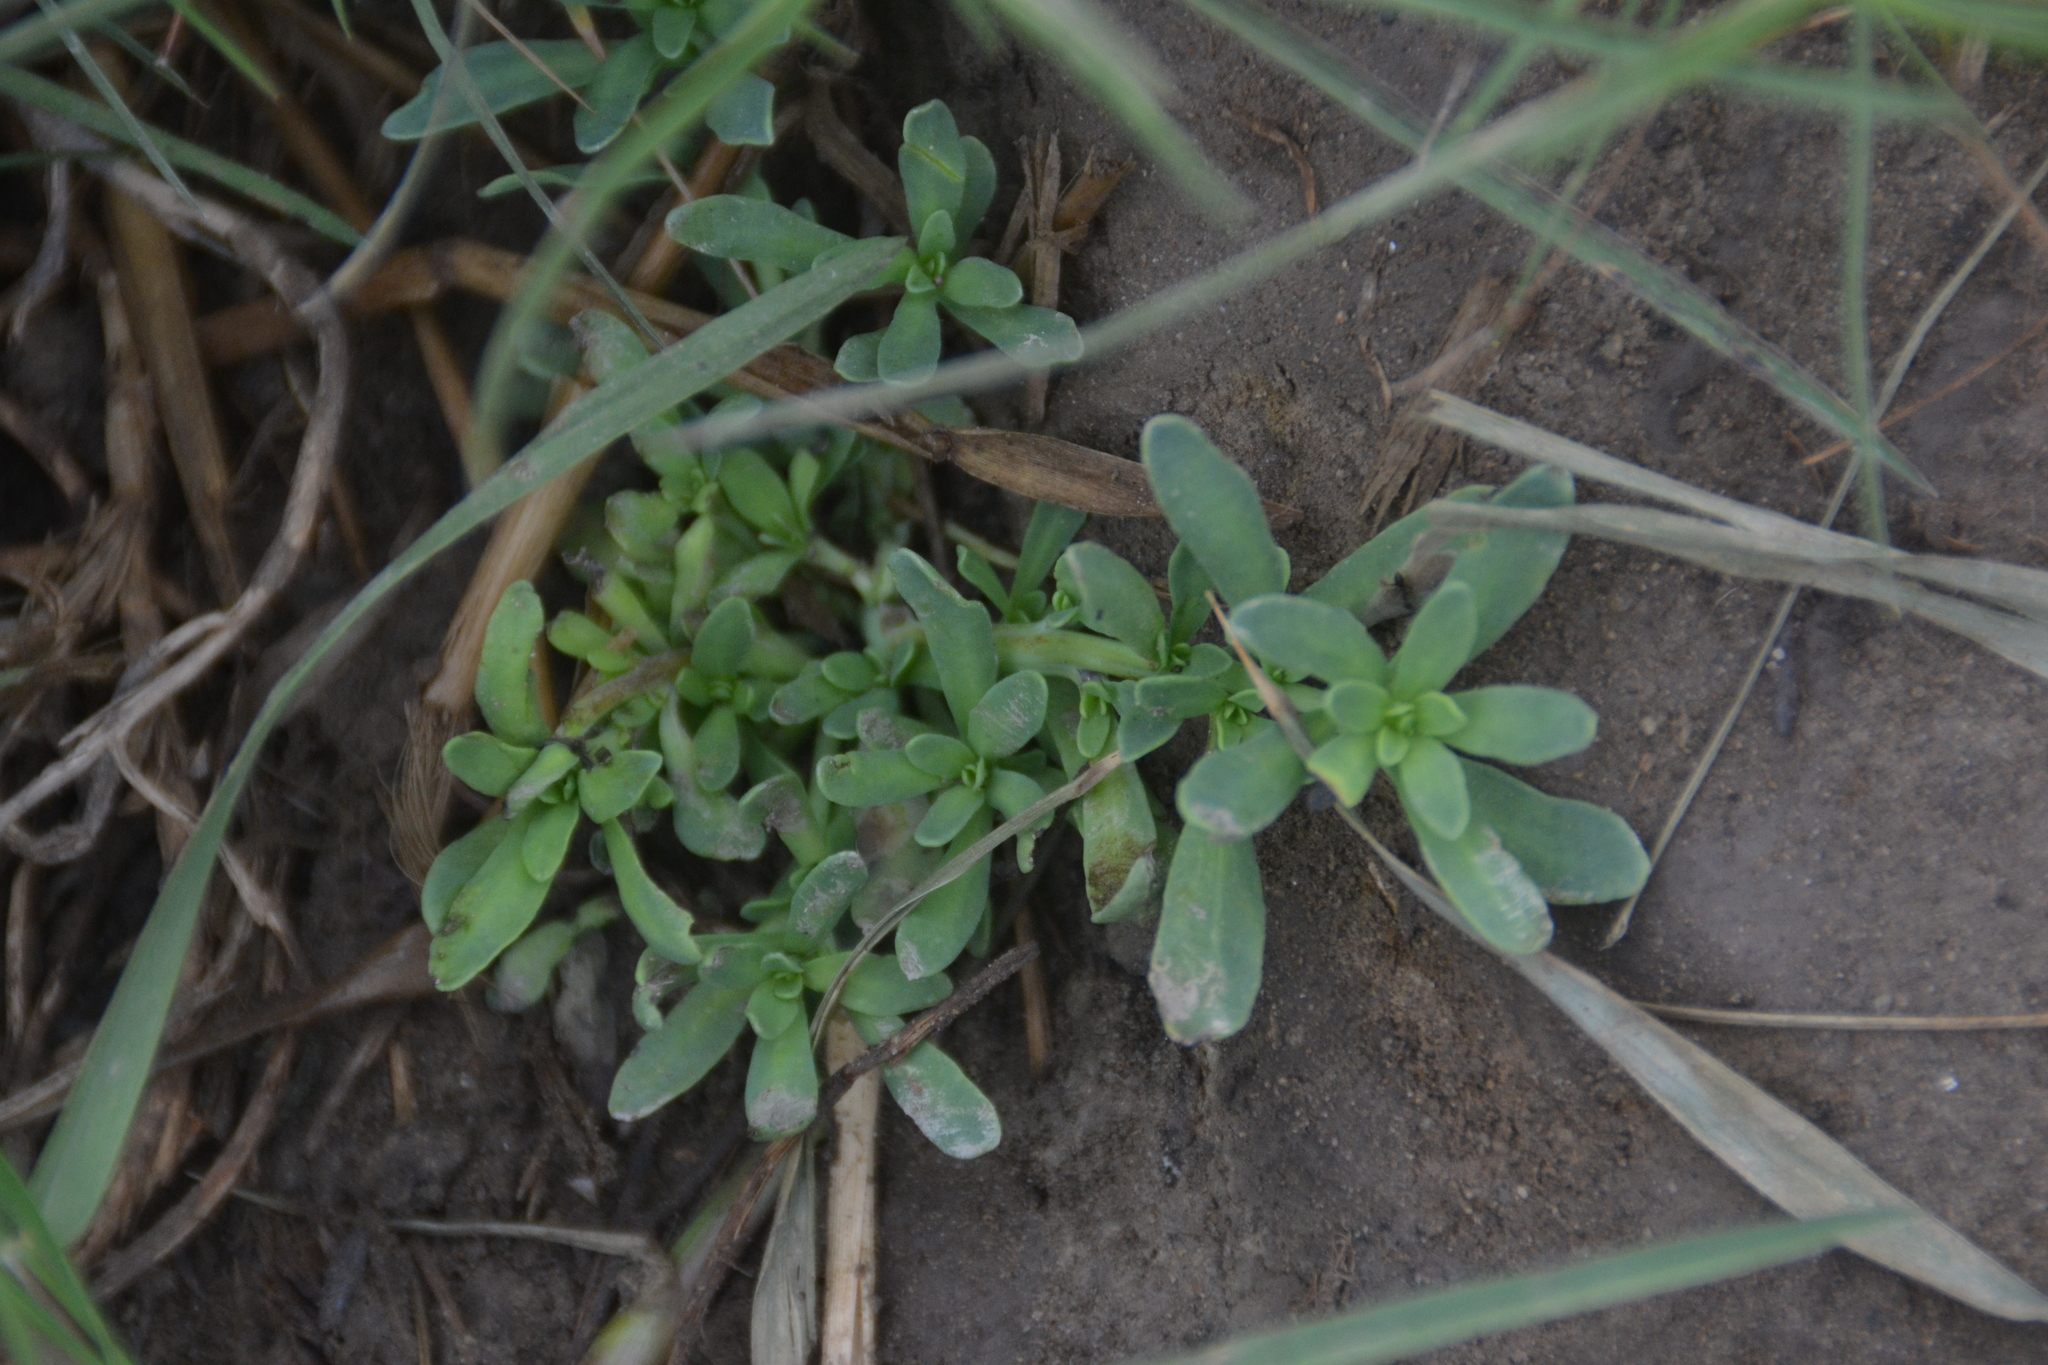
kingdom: Plantae
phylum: Tracheophyta
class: Magnoliopsida
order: Boraginales
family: Heliotropiaceae
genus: Heliotropium
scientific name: Heliotropium curassavicum
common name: Seaside heliotrope
